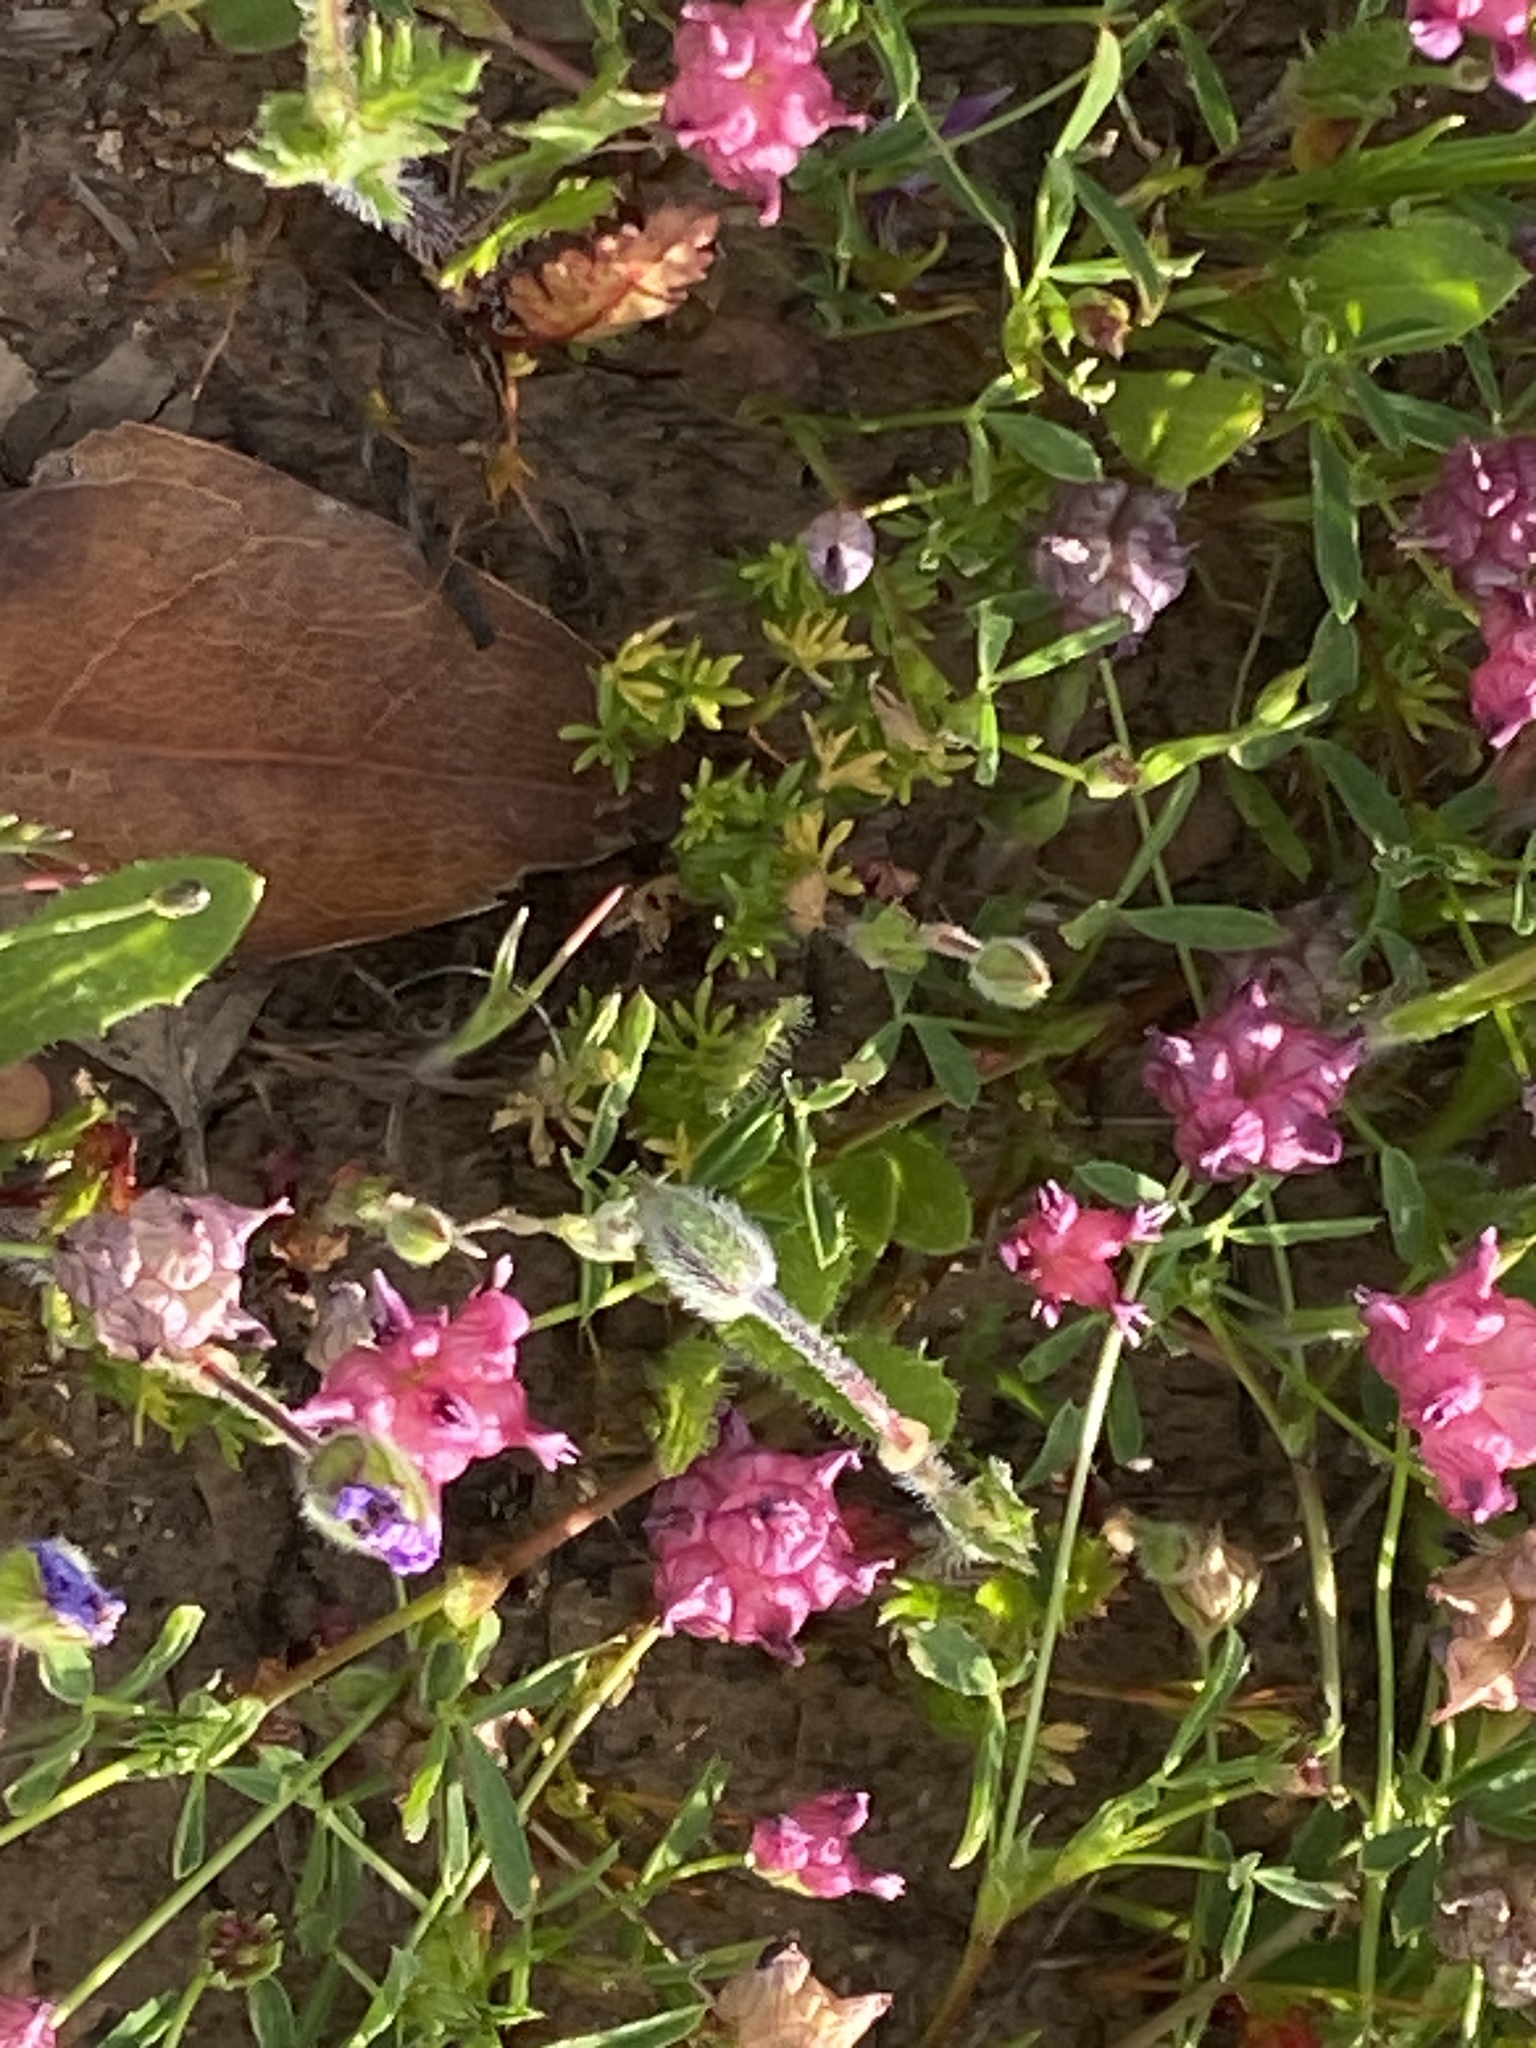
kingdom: Plantae
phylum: Tracheophyta
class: Magnoliopsida
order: Fabales
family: Fabaceae
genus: Trifolium
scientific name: Trifolium depauperatum
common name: Poverty clover
